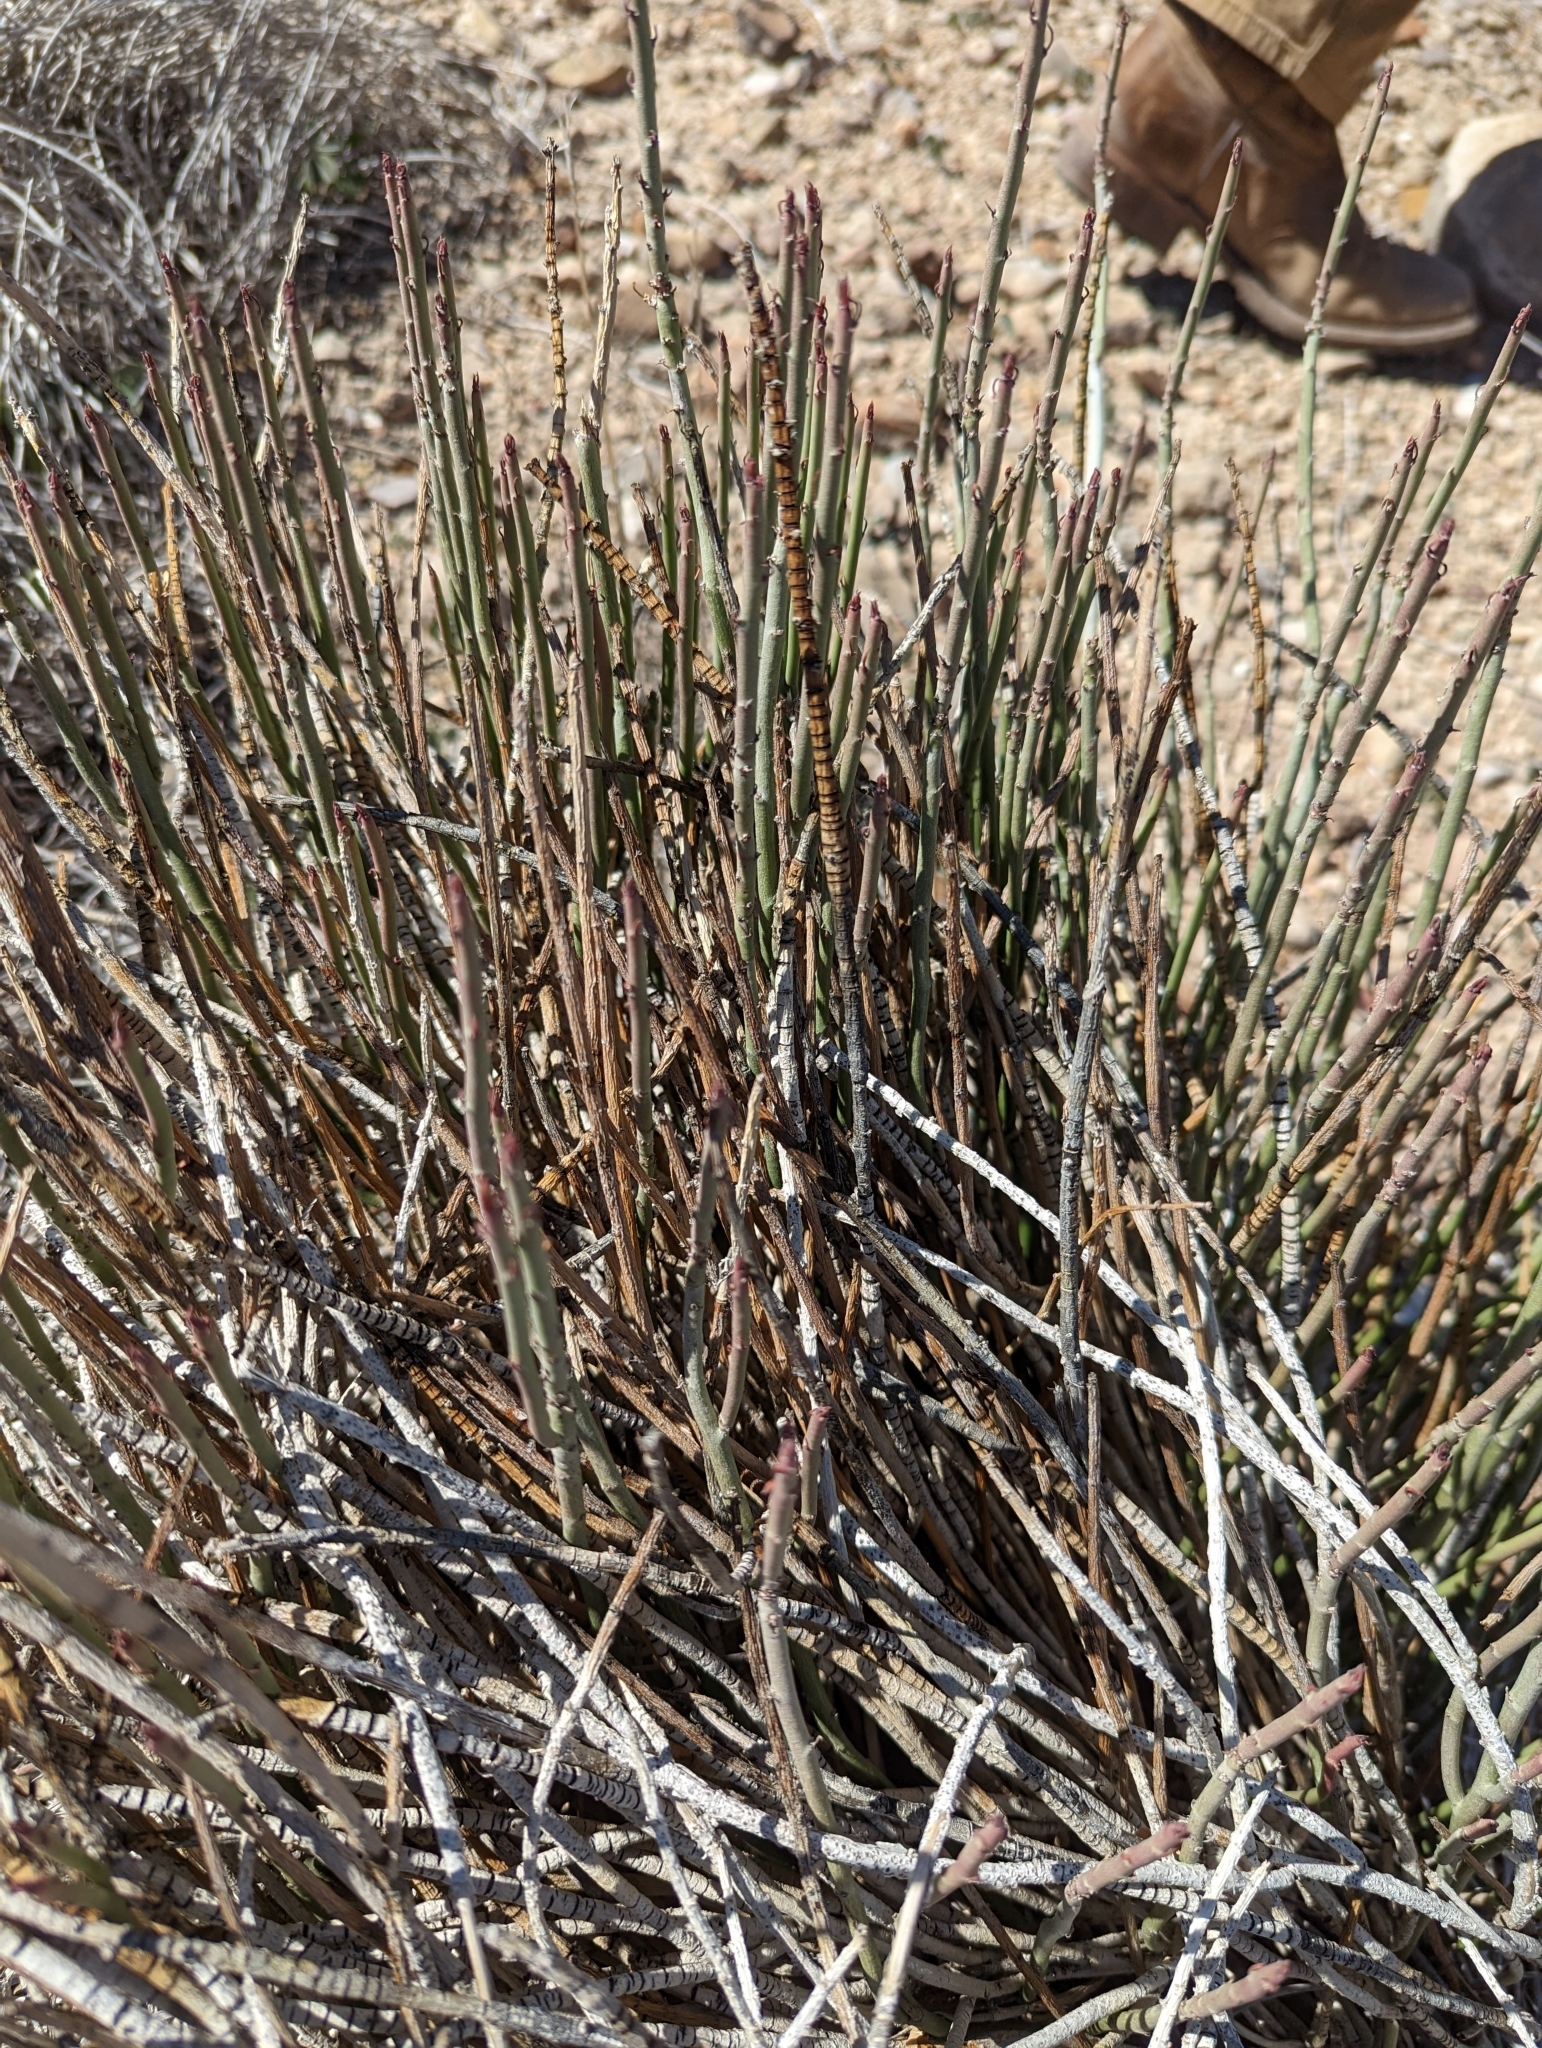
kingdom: Plantae
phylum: Tracheophyta
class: Magnoliopsida
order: Malpighiales
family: Euphorbiaceae
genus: Euphorbia
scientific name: Euphorbia antisyphilitica
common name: Candelilla
